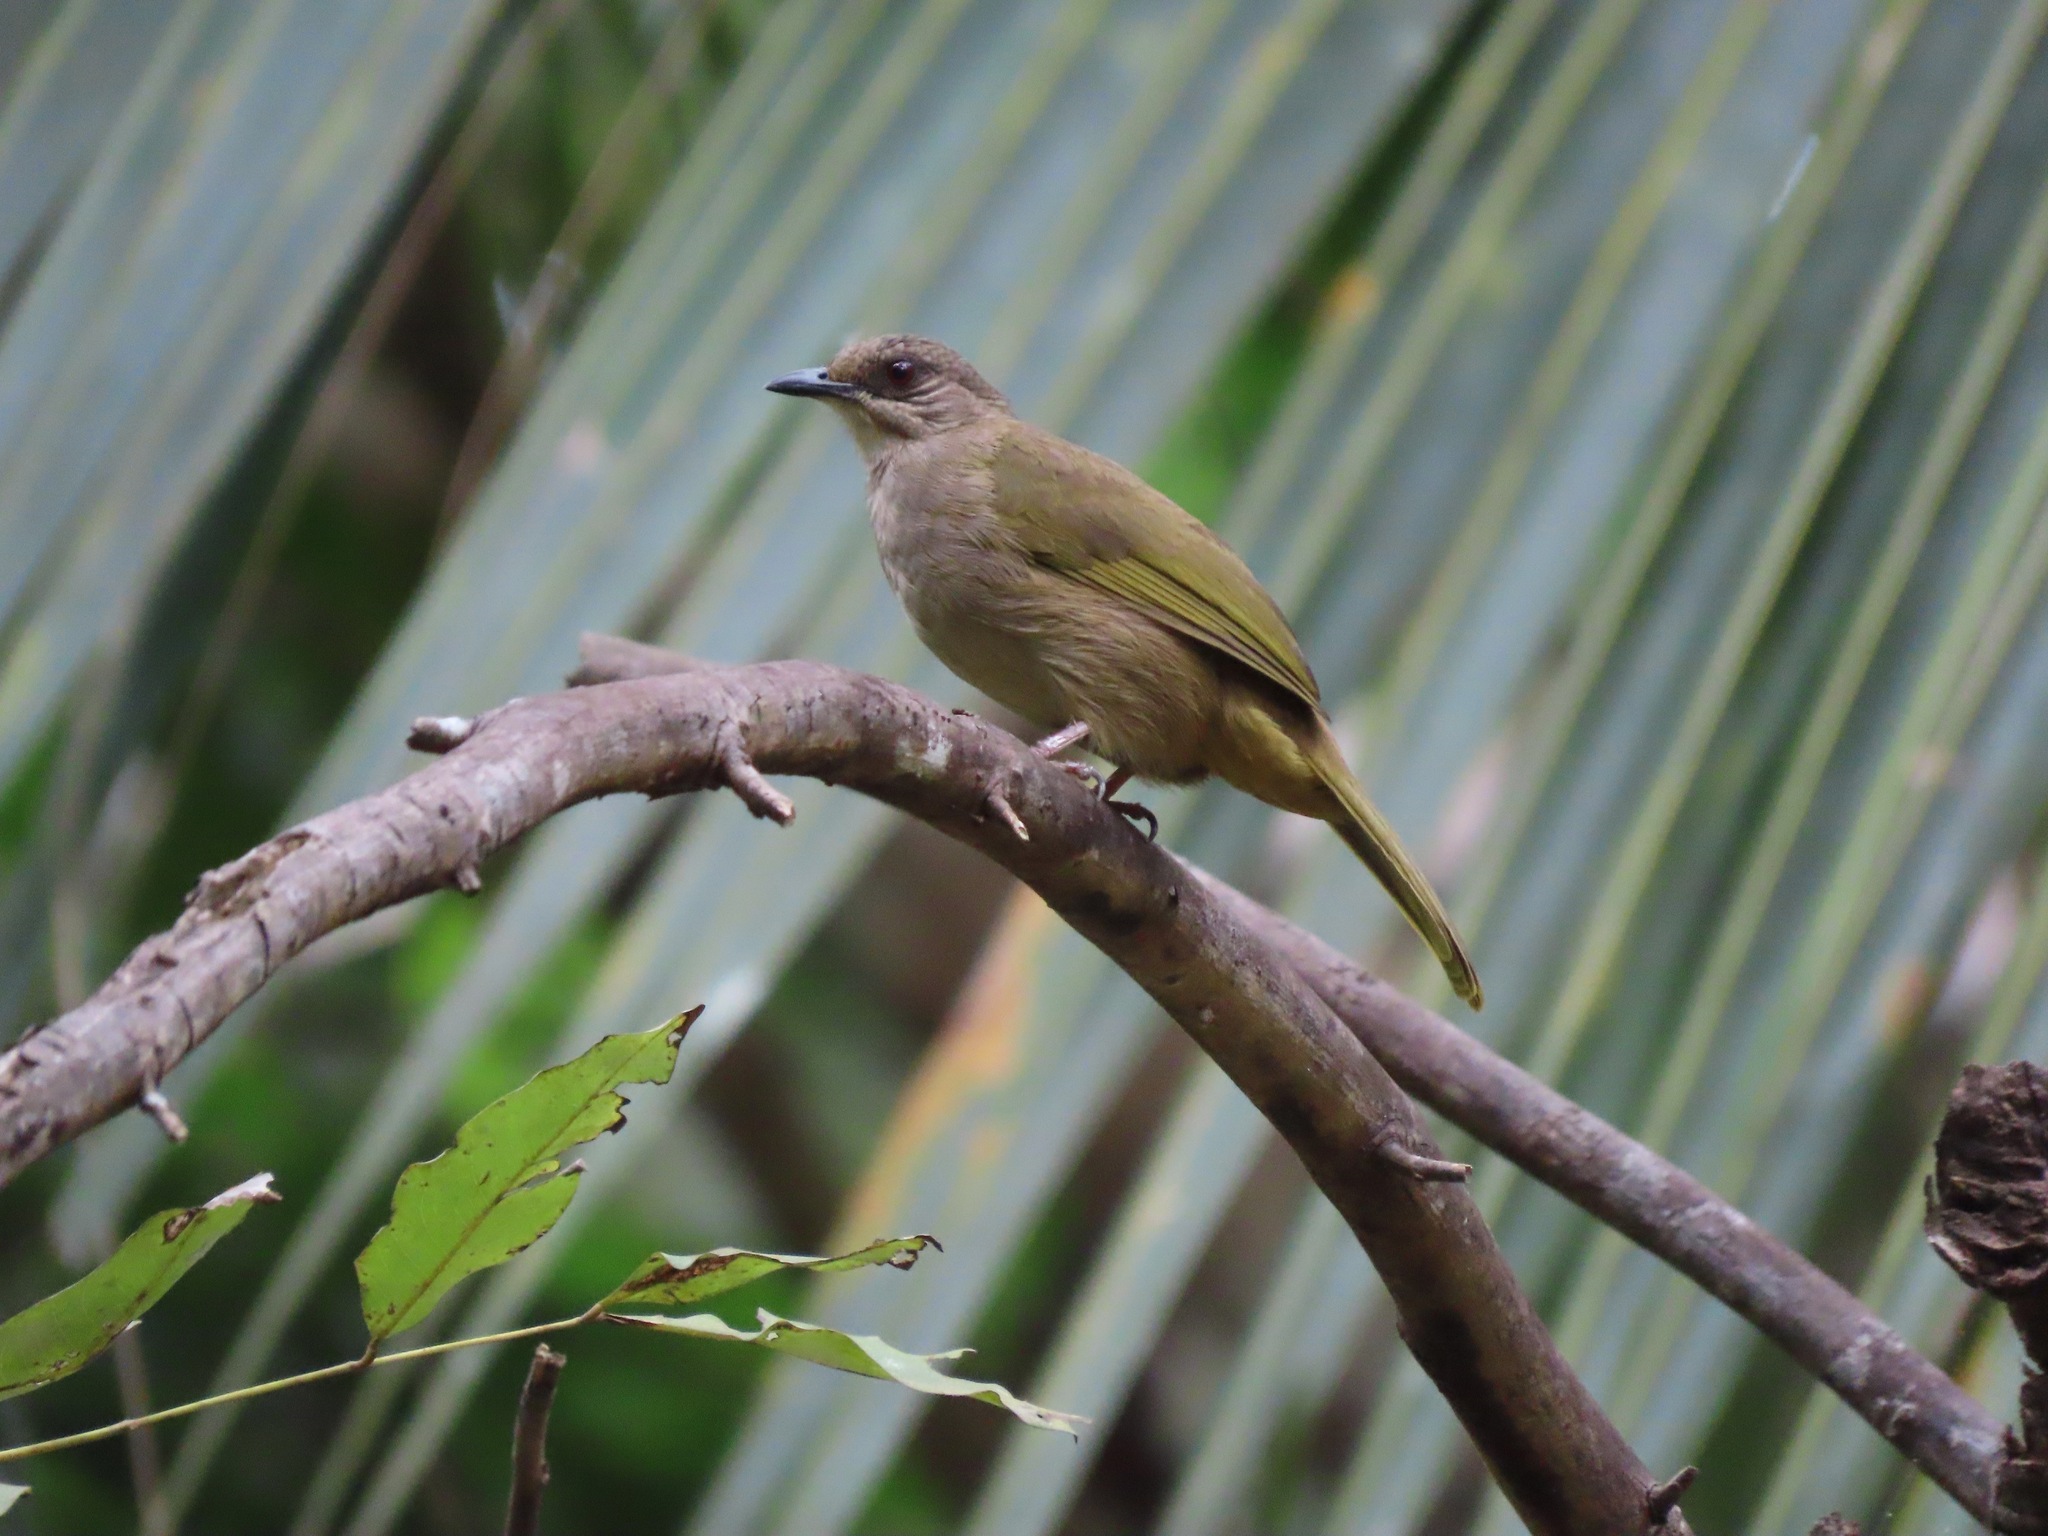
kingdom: Animalia
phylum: Chordata
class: Aves
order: Passeriformes
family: Pycnonotidae
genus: Pycnonotus
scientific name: Pycnonotus plumosus
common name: Olive-winged bulbul
